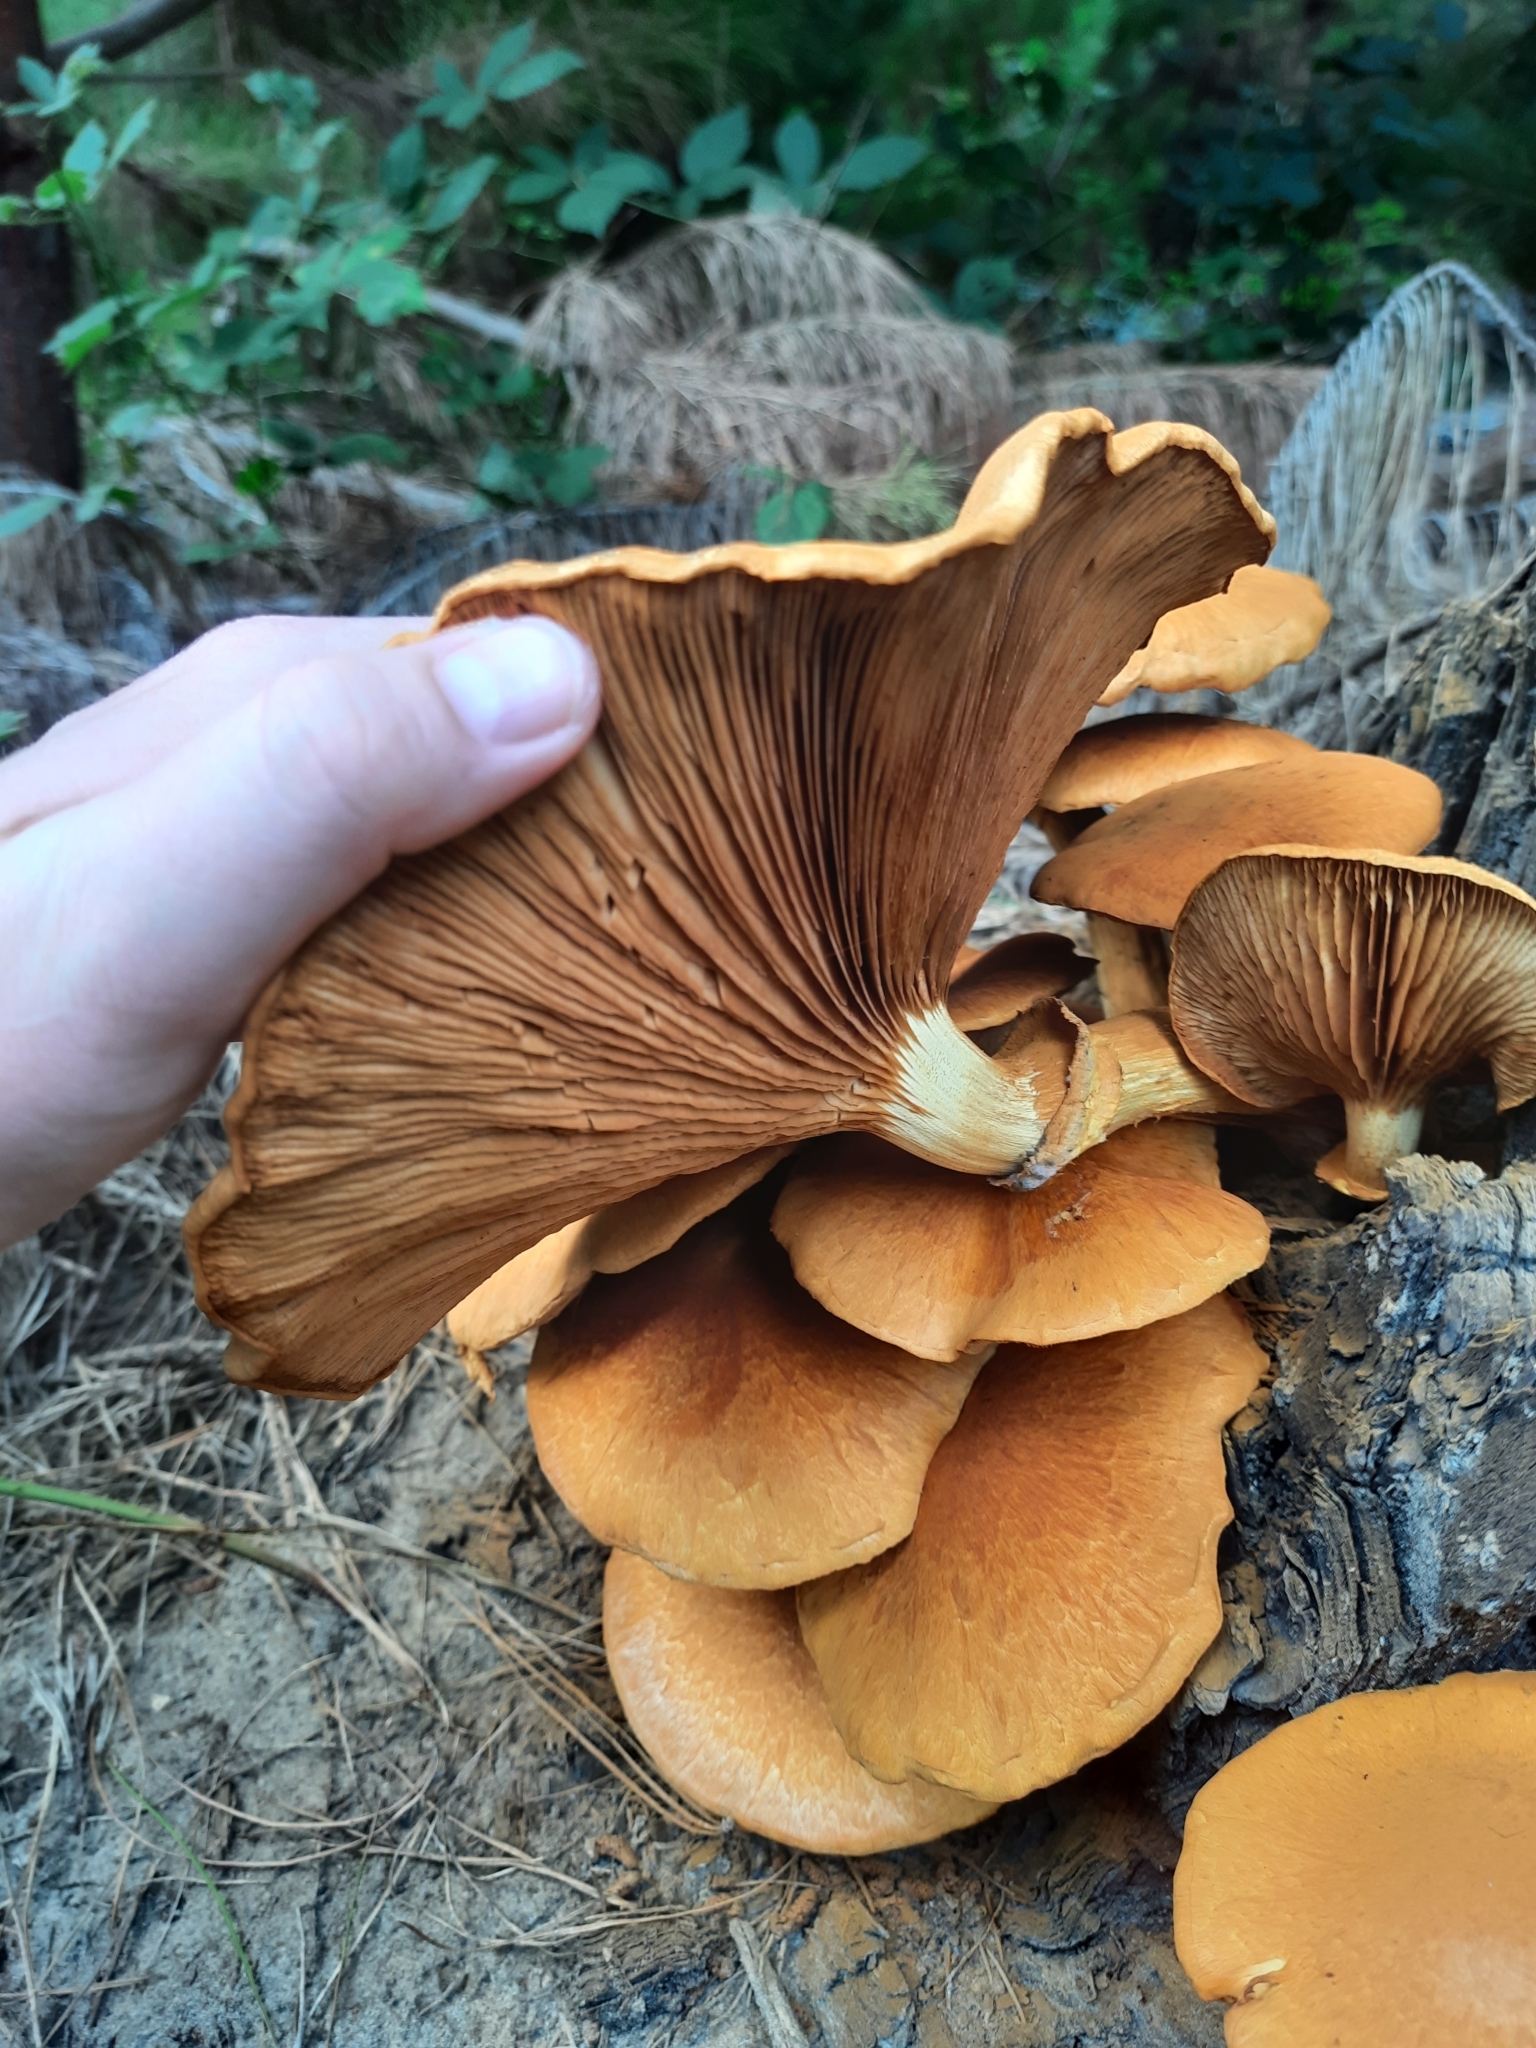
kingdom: Fungi
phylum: Basidiomycota
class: Agaricomycetes
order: Agaricales
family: Hymenogastraceae
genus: Gymnopilus
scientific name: Gymnopilus junonius
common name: Spectacular rustgill
